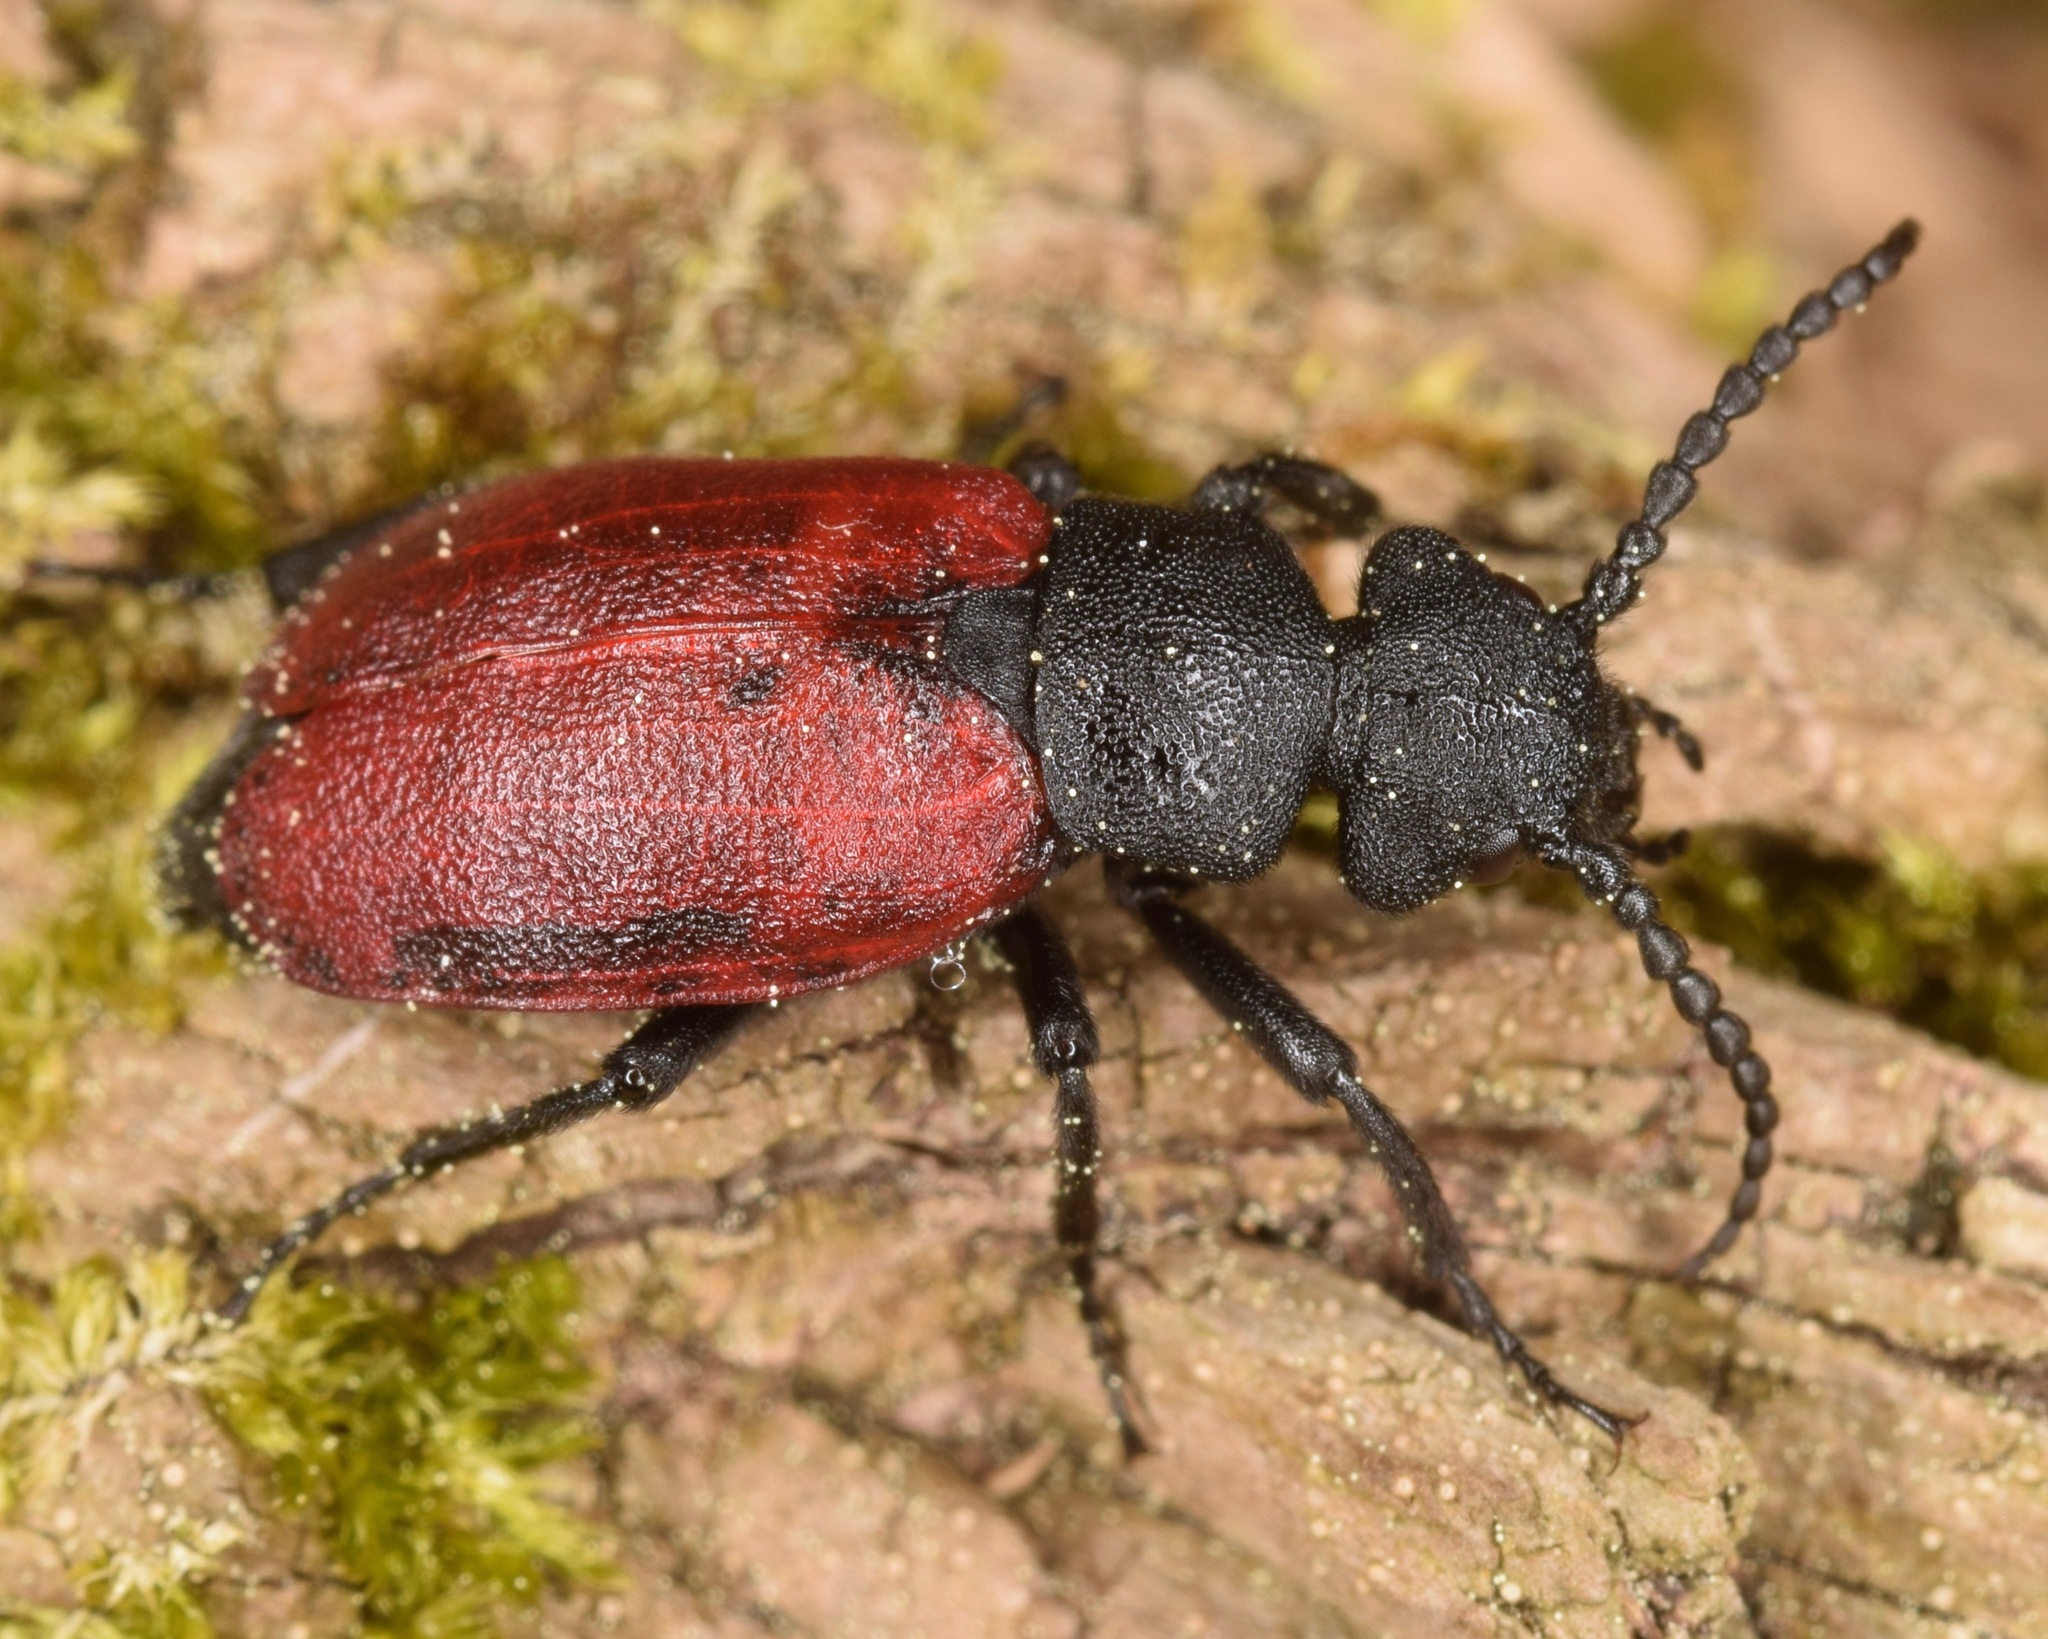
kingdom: Animalia
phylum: Arthropoda
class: Insecta
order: Coleoptera
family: Meloidae
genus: Tricrania
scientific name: Tricrania sanguinipennis
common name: Blood-winged blister beetle
